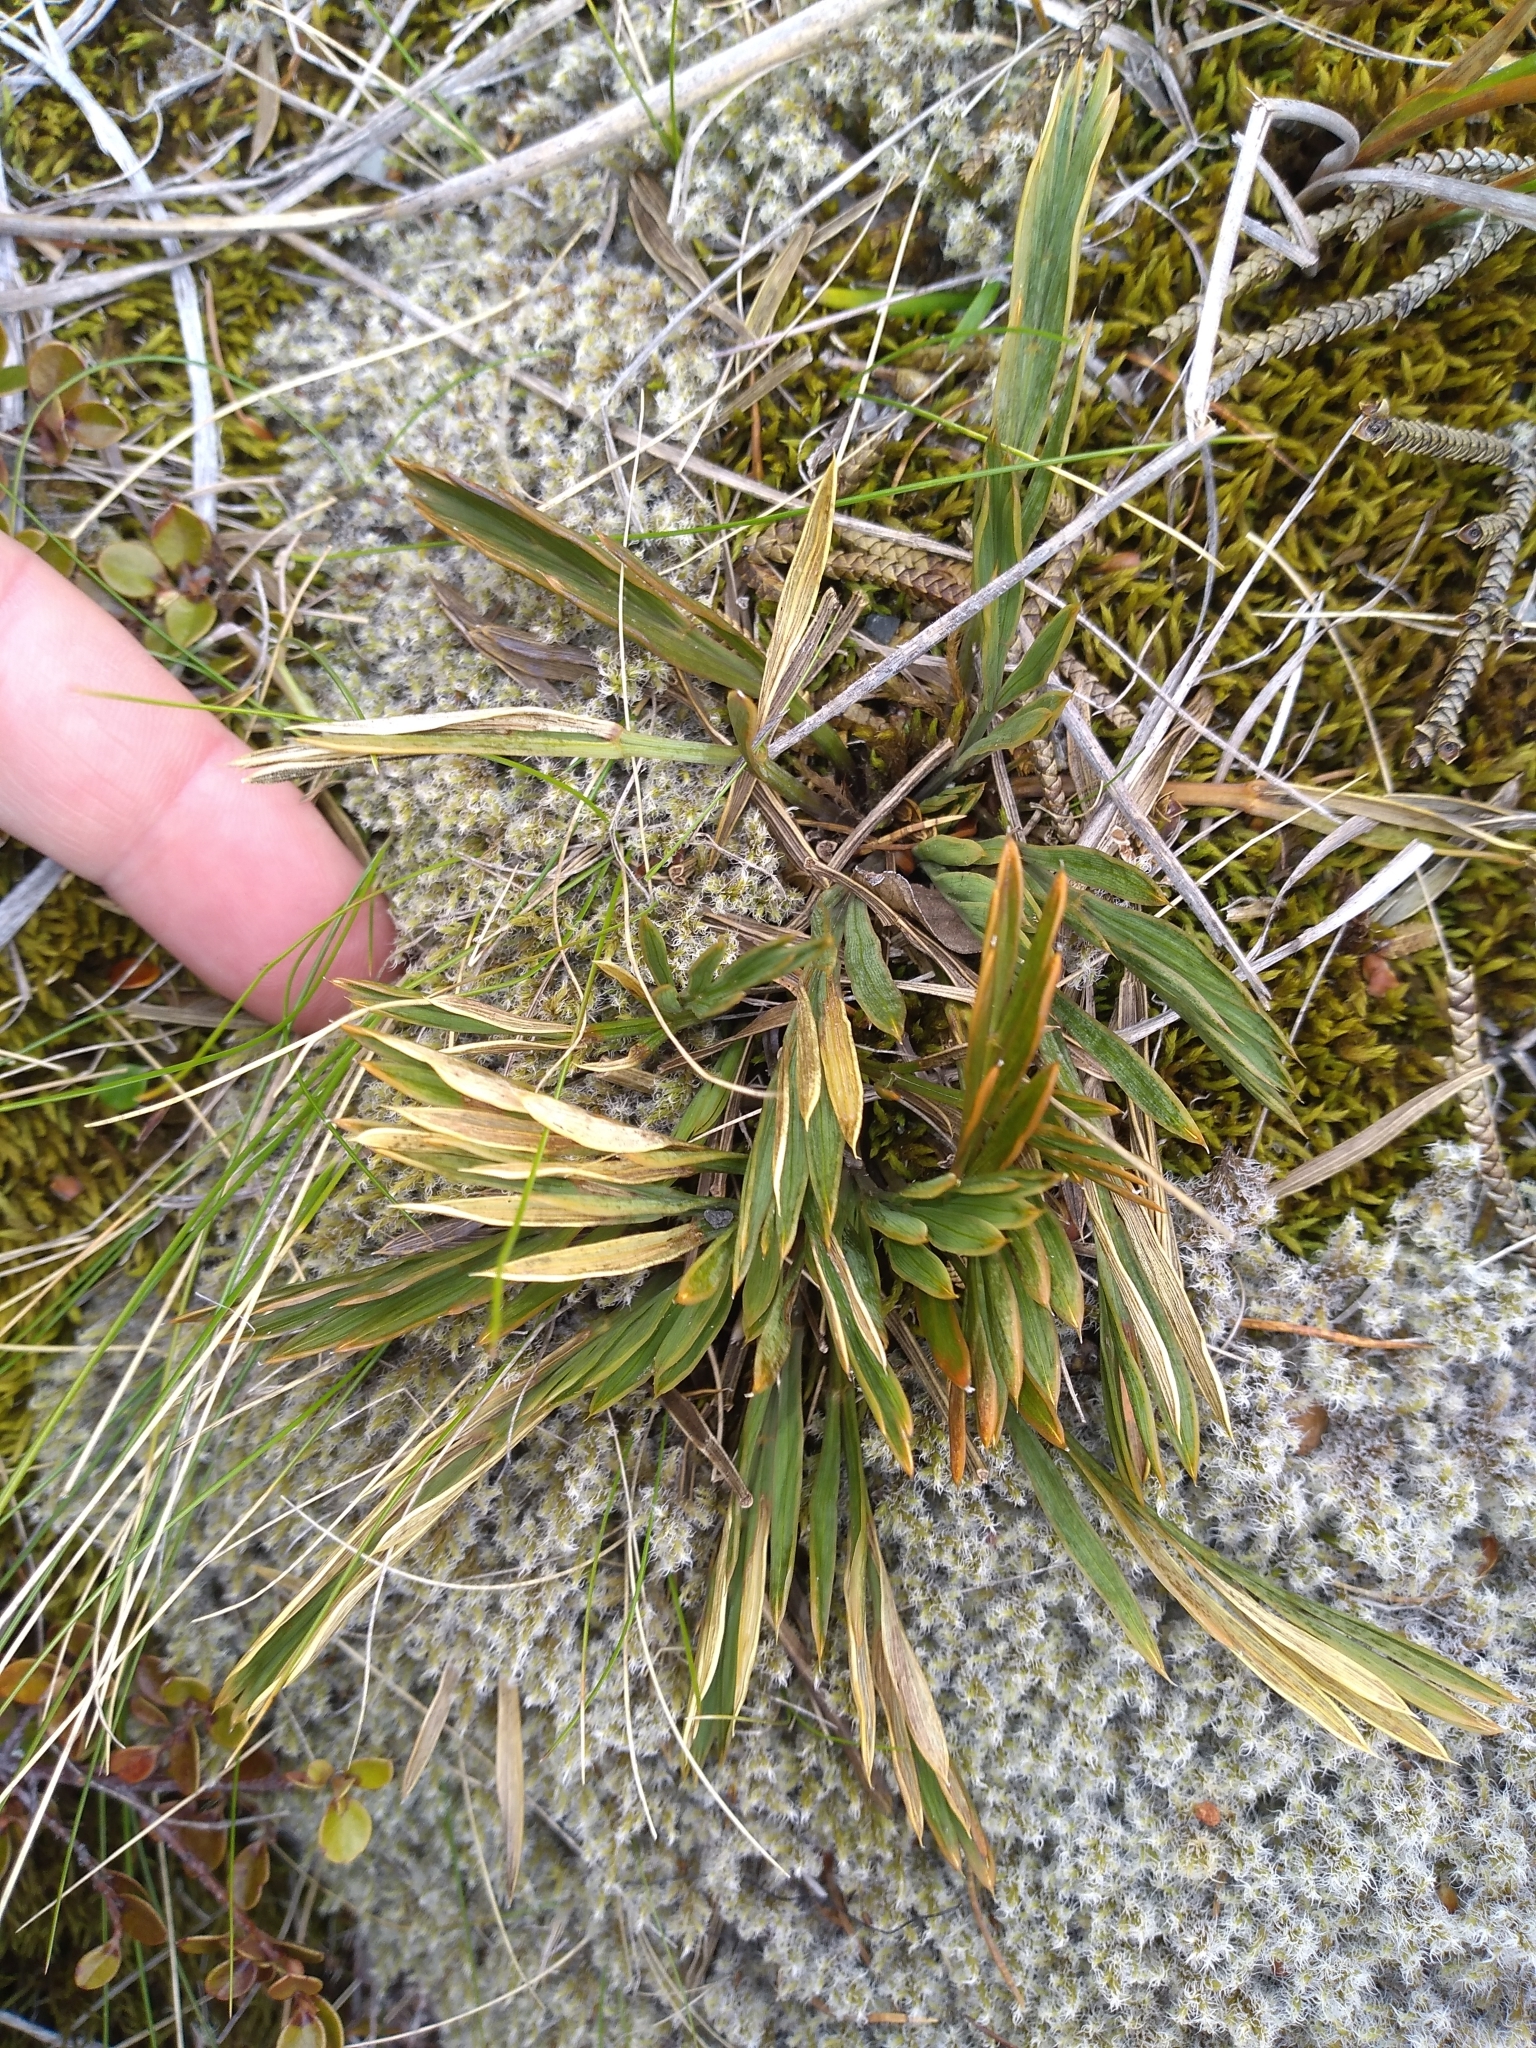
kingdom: Plantae
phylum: Tracheophyta
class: Magnoliopsida
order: Apiales
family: Apiaceae
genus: Aciphylla
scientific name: Aciphylla monroi
